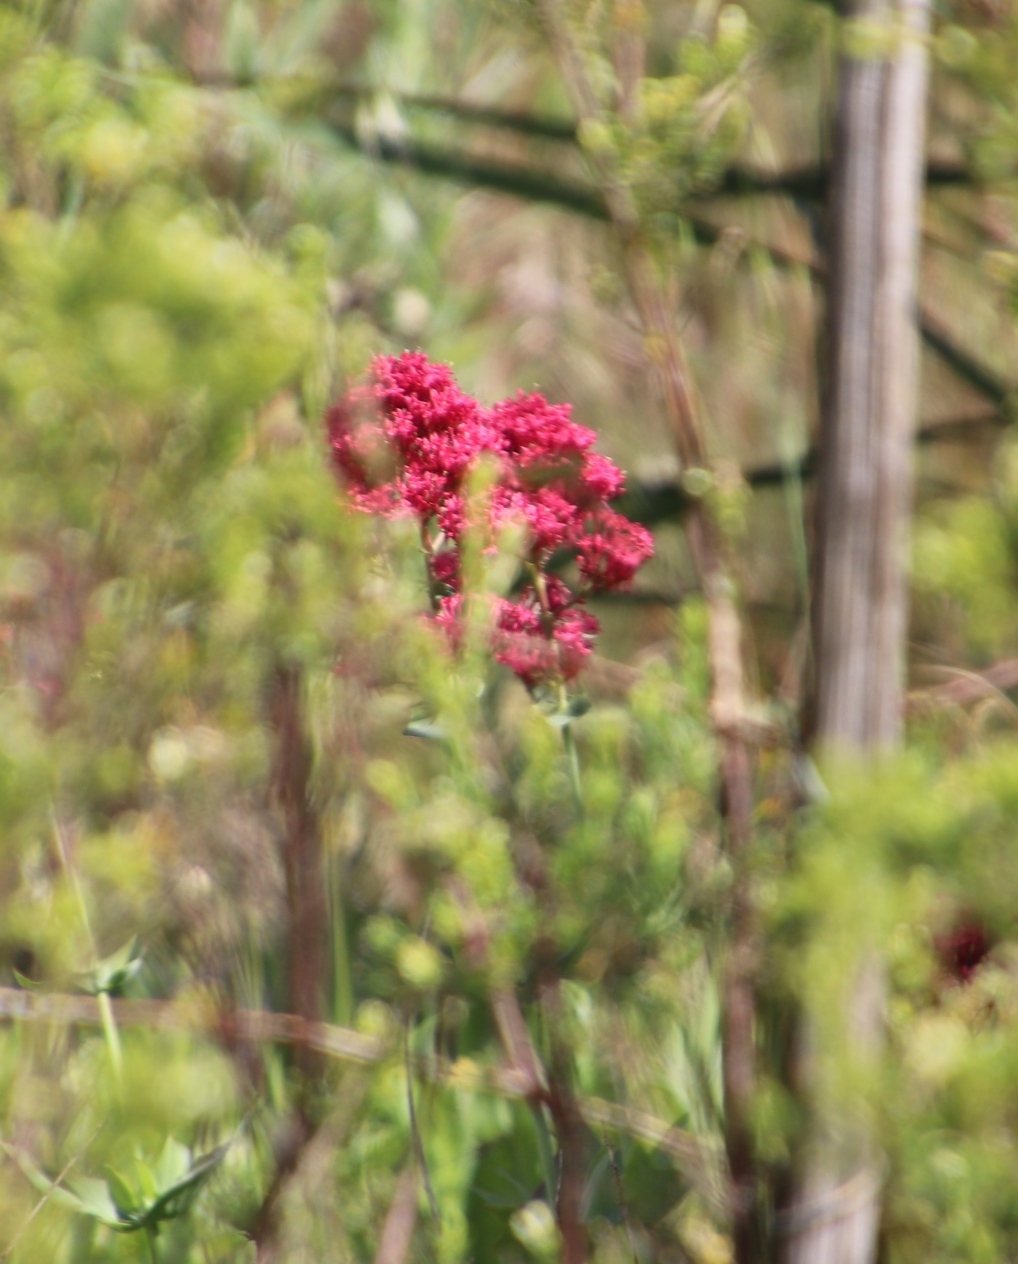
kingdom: Plantae
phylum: Tracheophyta
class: Magnoliopsida
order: Dipsacales
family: Caprifoliaceae
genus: Centranthus
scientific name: Centranthus ruber
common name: Red valerian
